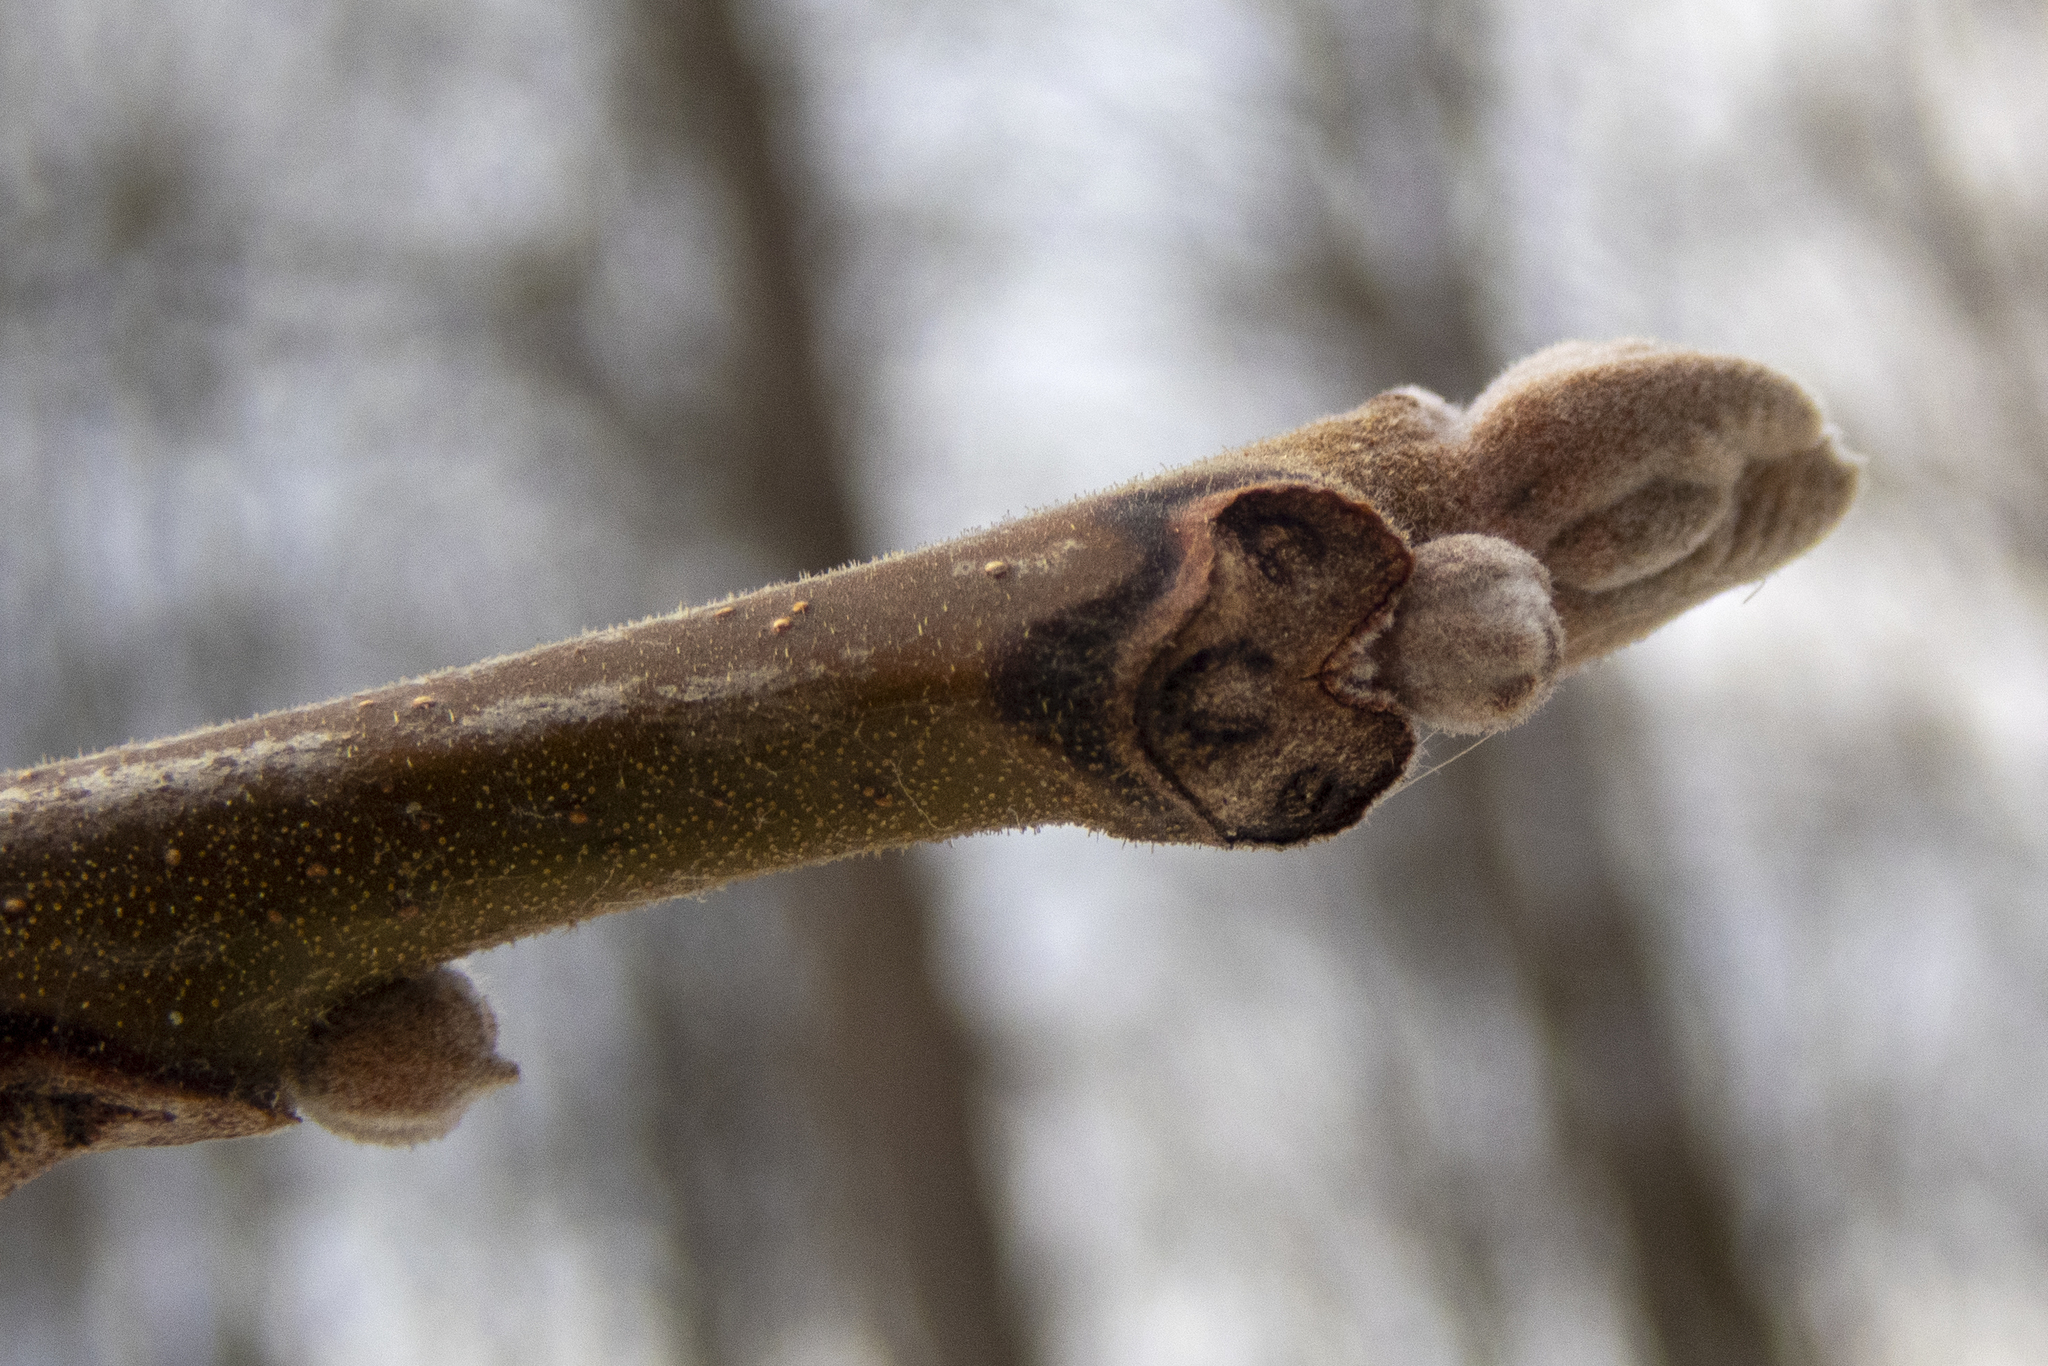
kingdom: Plantae
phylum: Tracheophyta
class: Magnoliopsida
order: Fagales
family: Juglandaceae
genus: Juglans
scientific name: Juglans nigra
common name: Black walnut
